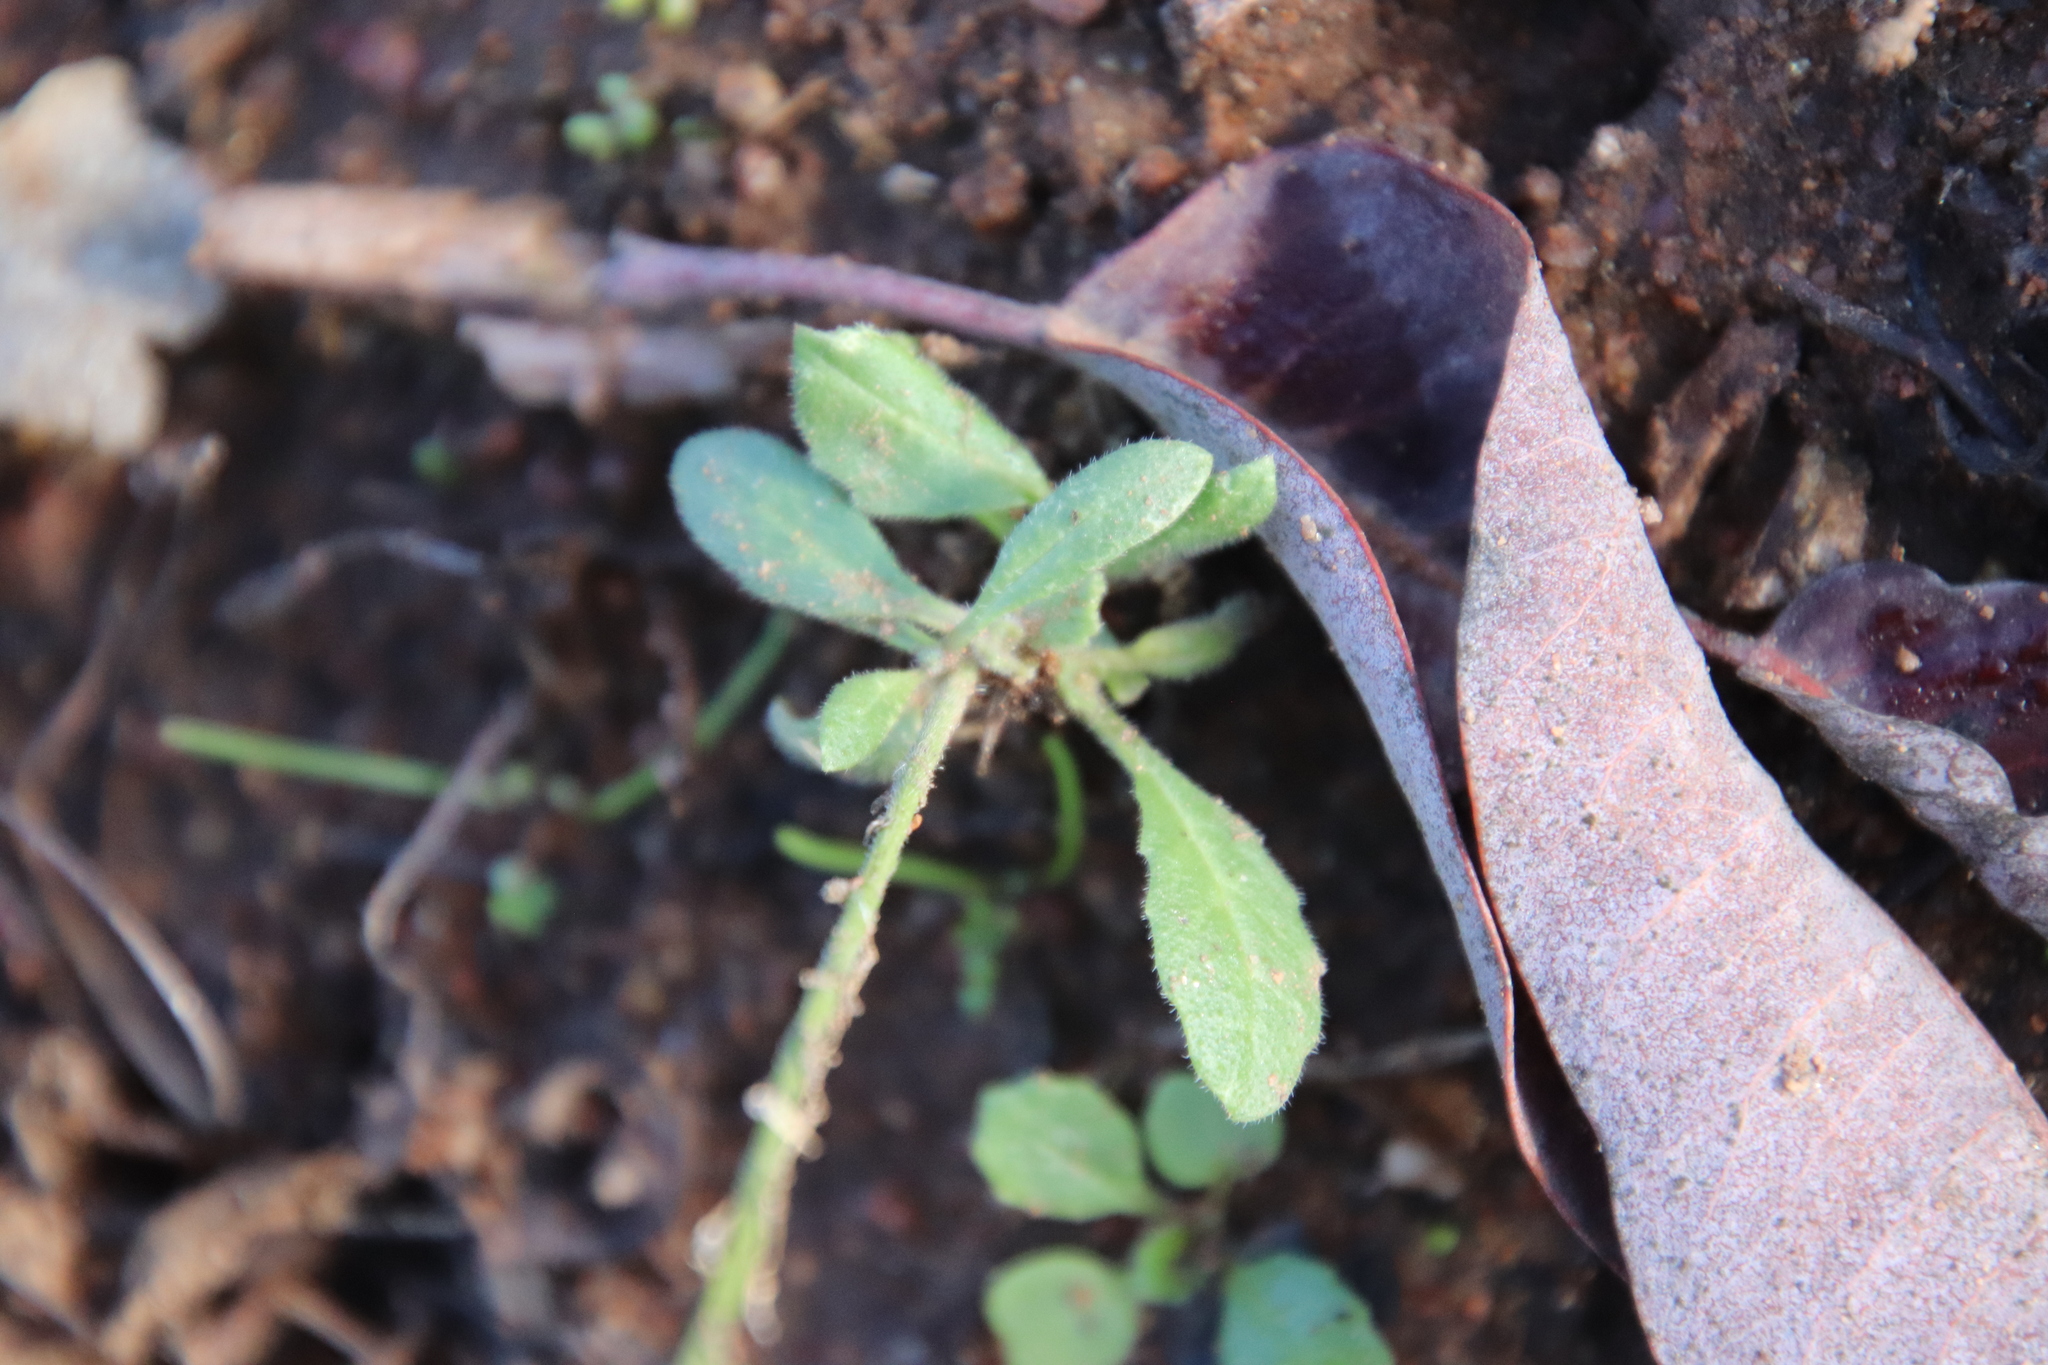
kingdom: Plantae
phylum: Tracheophyta
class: Magnoliopsida
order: Brassicales
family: Brassicaceae
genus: Hirschfeldia
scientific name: Hirschfeldia incana
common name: Hoary mustard
